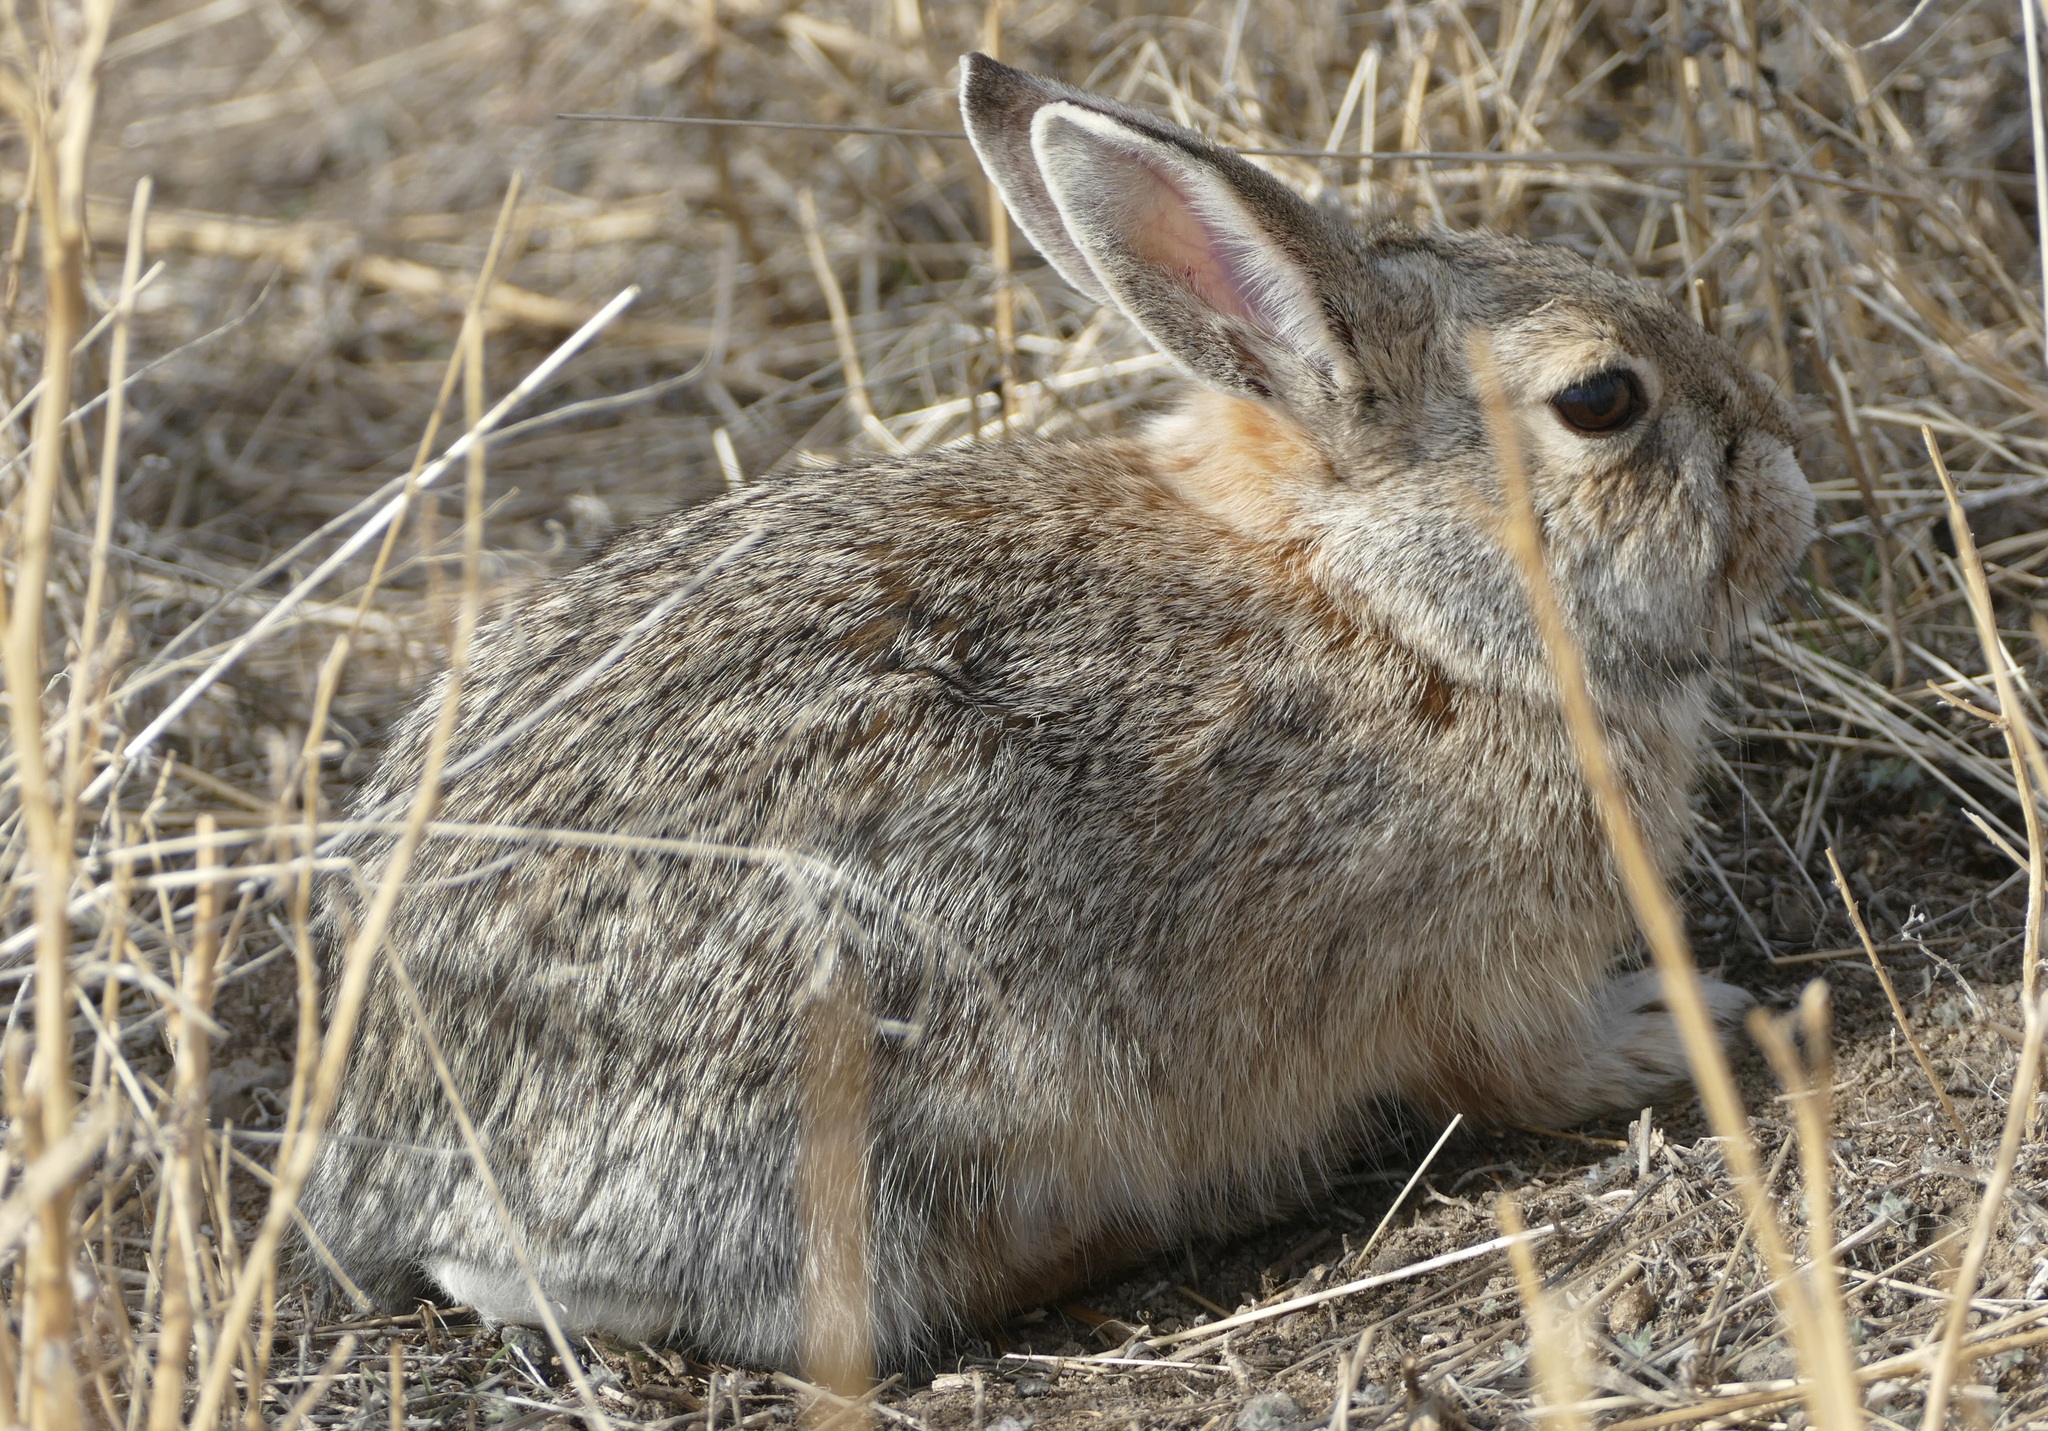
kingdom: Animalia
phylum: Chordata
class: Mammalia
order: Lagomorpha
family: Leporidae
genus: Sylvilagus
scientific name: Sylvilagus nuttallii
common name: Mountain cottontail
